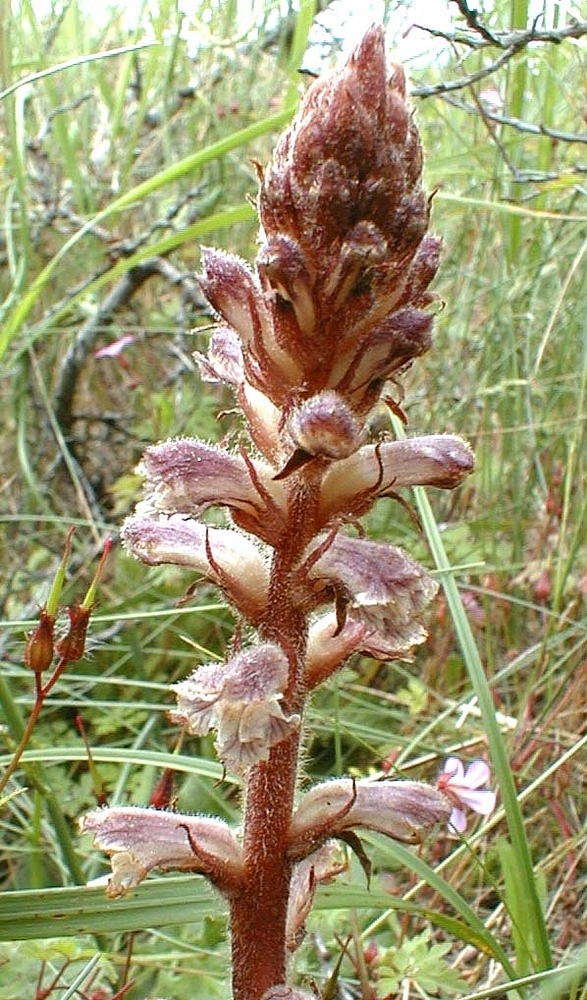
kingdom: Plantae
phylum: Tracheophyta
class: Magnoliopsida
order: Lamiales
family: Orobanchaceae
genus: Orobanche
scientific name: Orobanche minor
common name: Common broomrape
